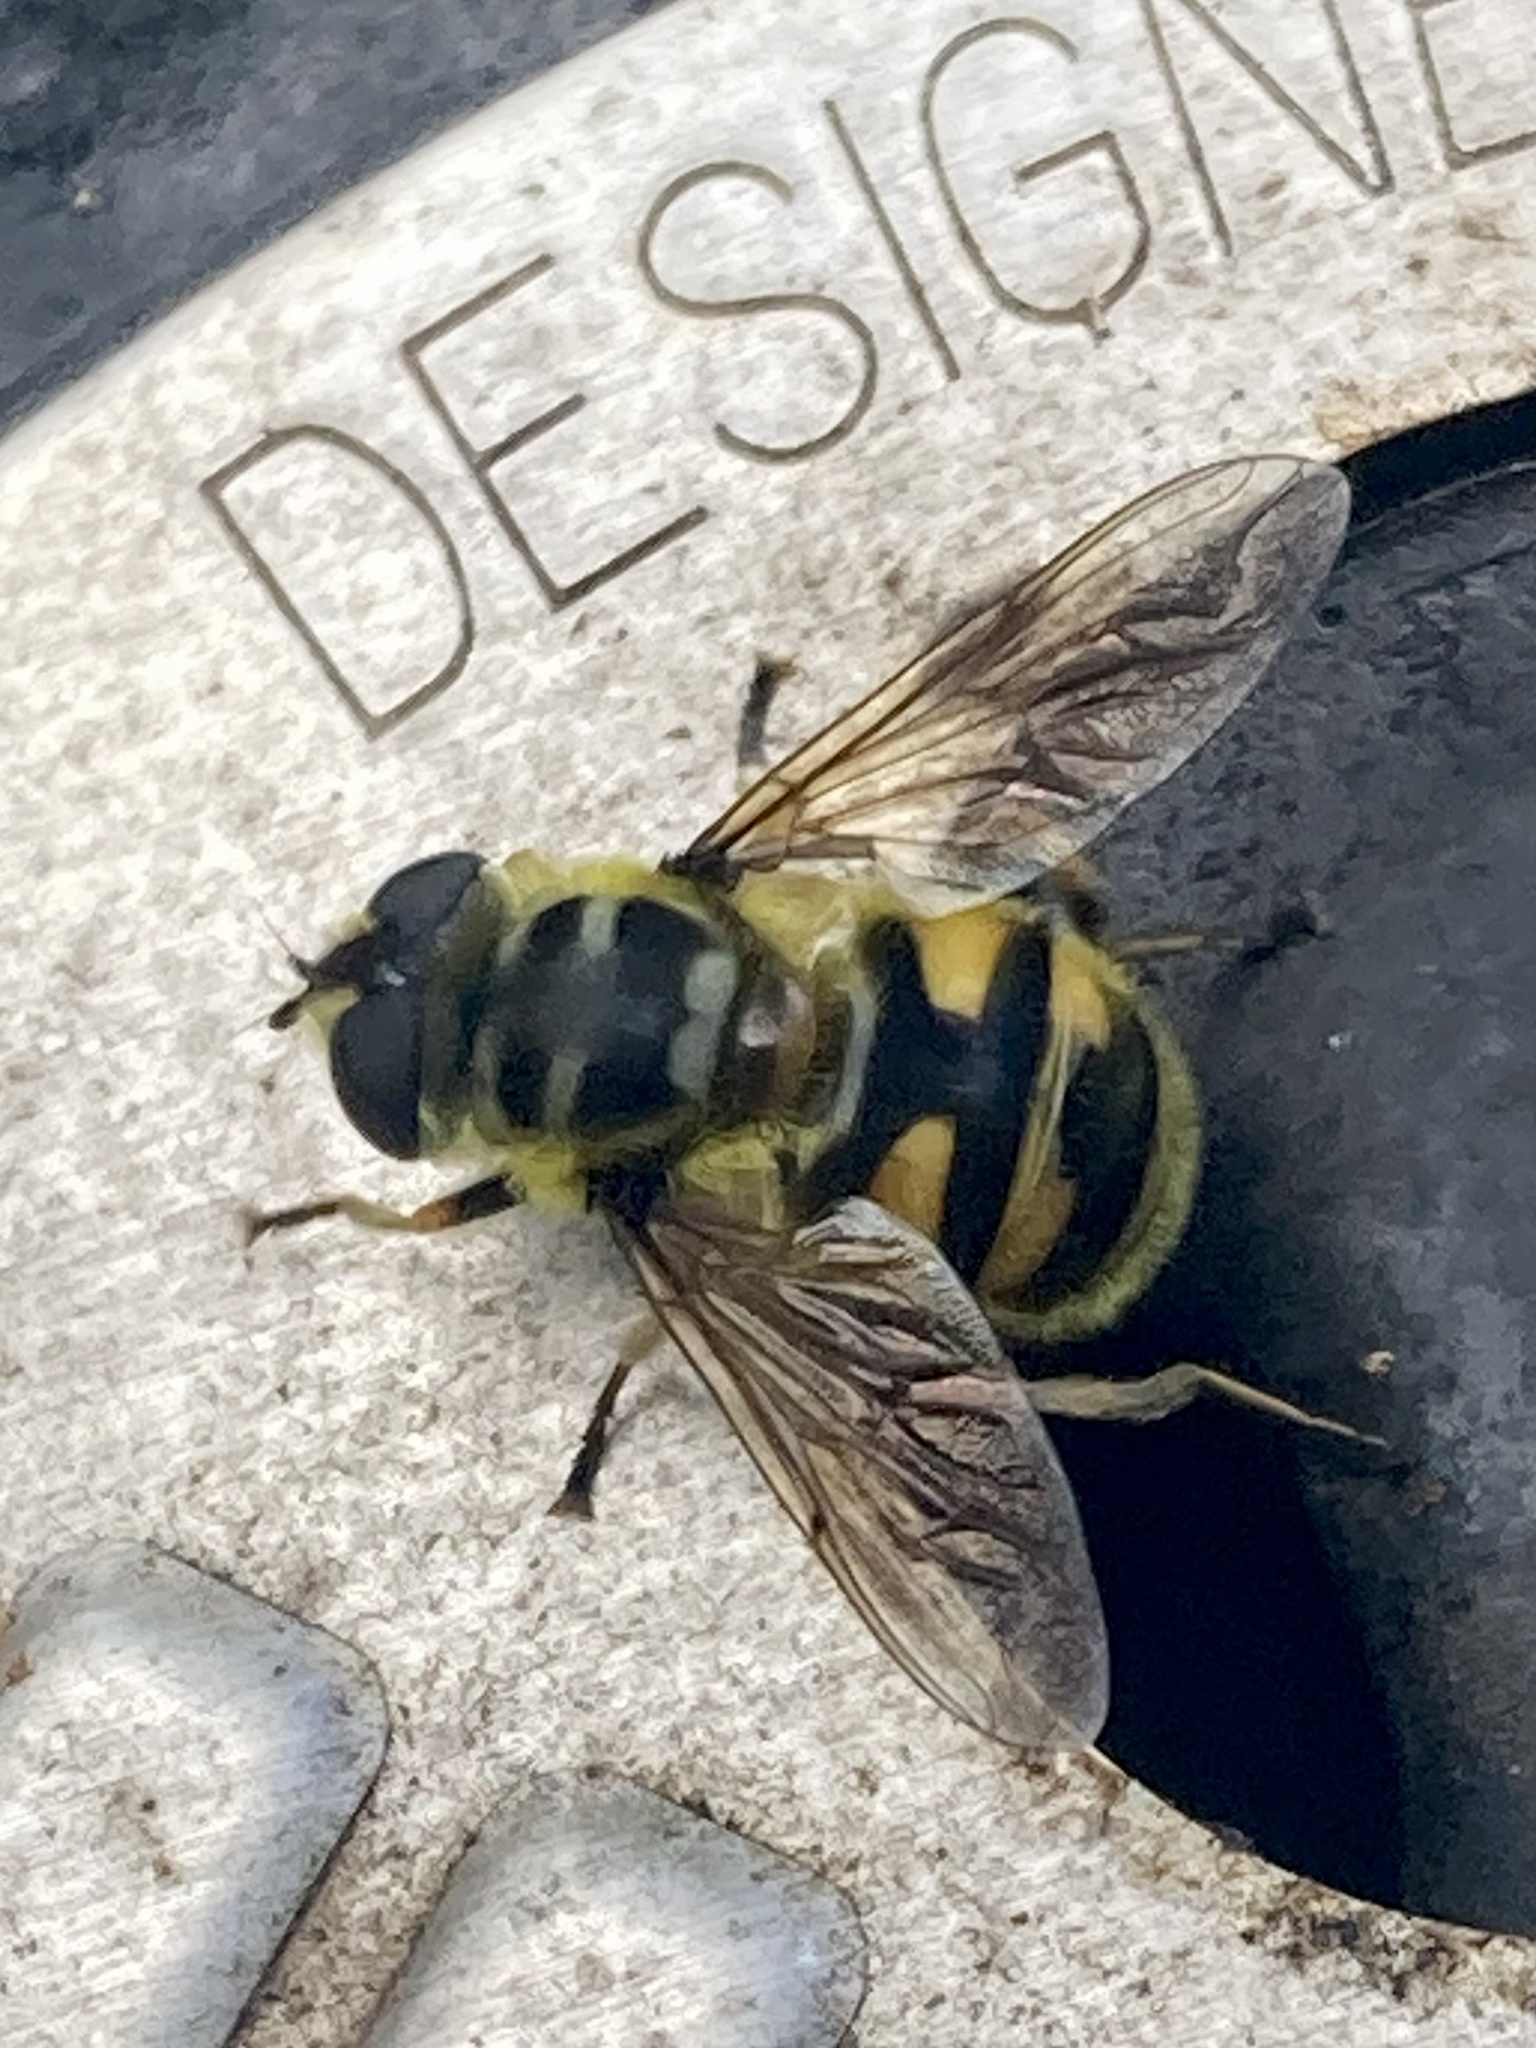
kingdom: Animalia
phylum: Arthropoda
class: Insecta
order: Diptera
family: Syrphidae
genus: Myathropa
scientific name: Myathropa florea
